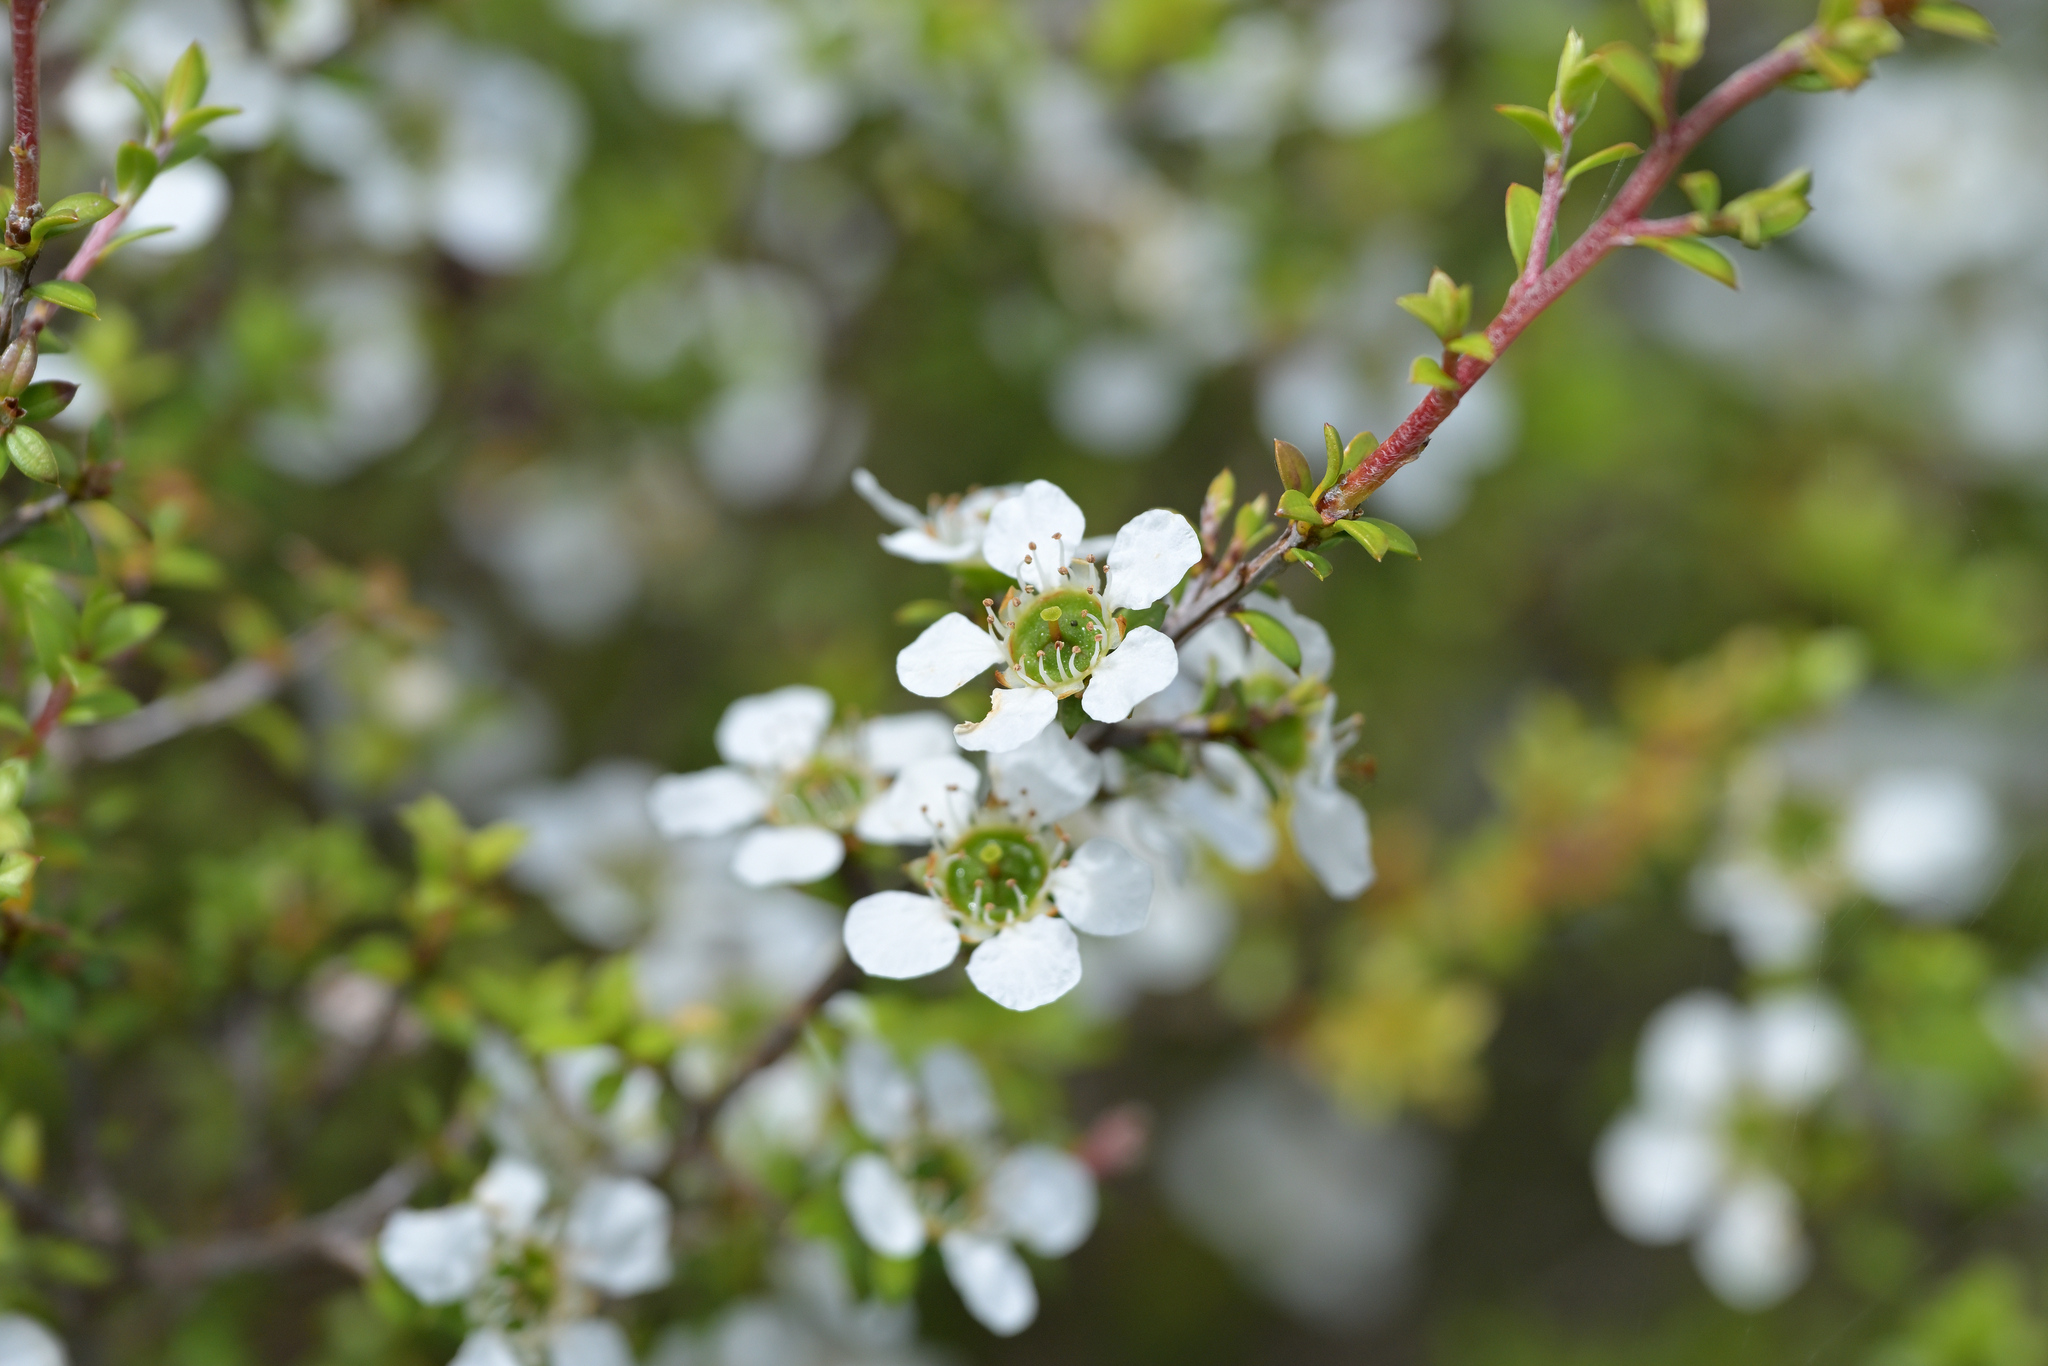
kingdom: Plantae
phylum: Tracheophyta
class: Magnoliopsida
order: Myrtales
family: Myrtaceae
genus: Leptospermum
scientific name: Leptospermum scoparium
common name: Broom tea-tree
